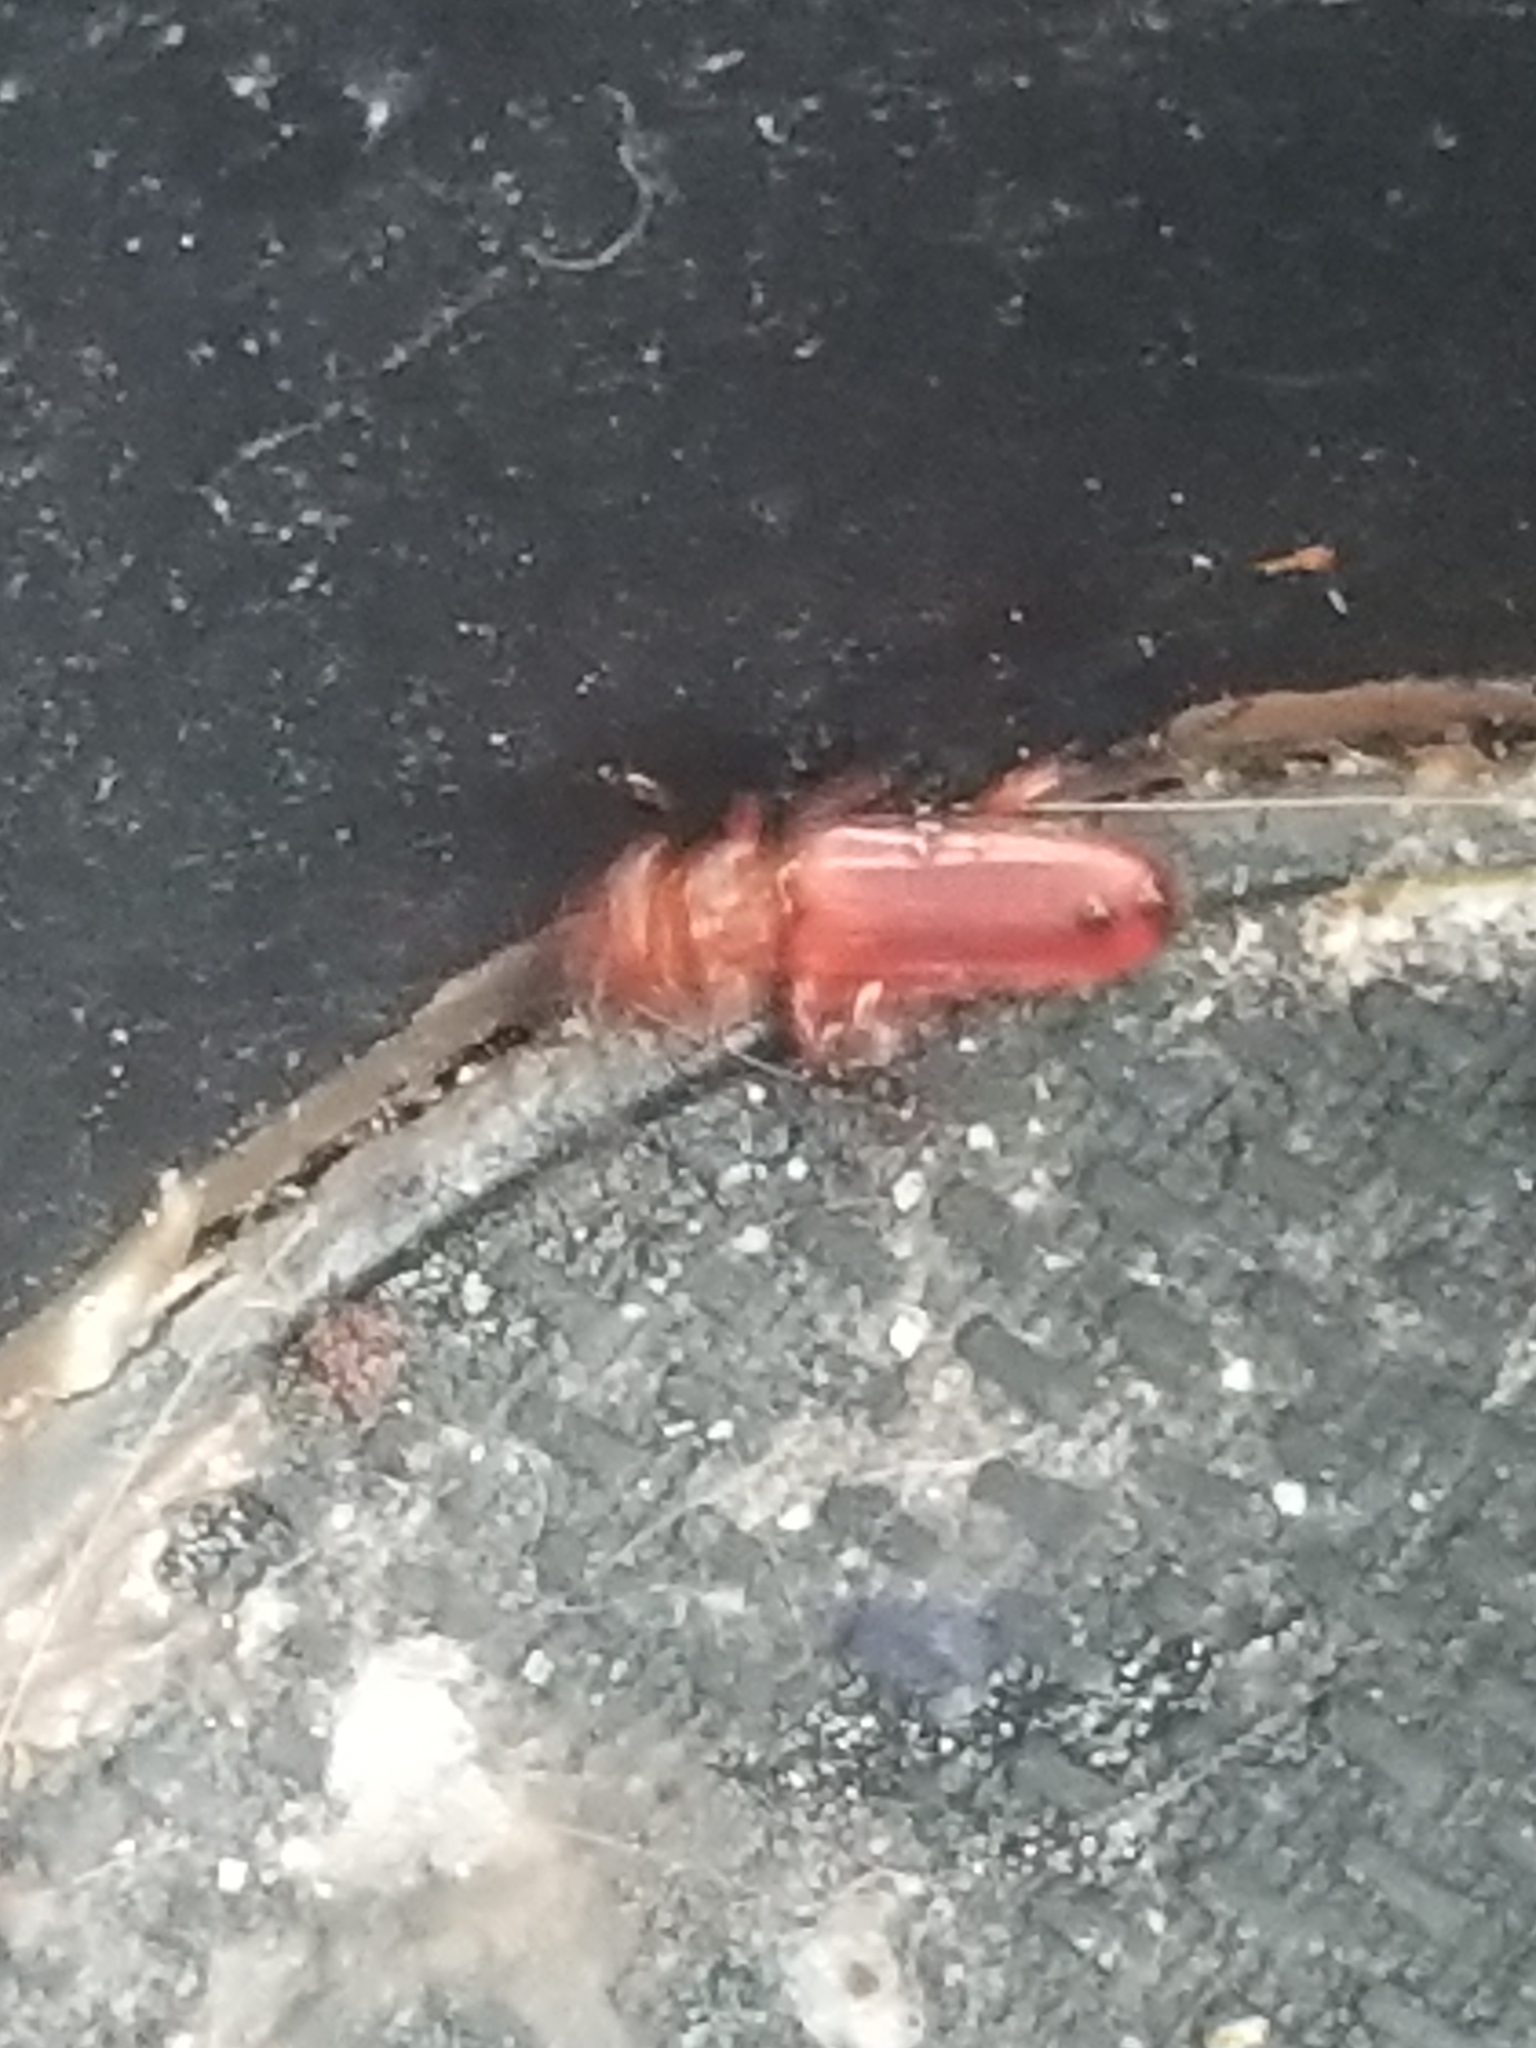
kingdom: Animalia
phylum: Arthropoda
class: Insecta
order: Coleoptera
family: Cucujidae
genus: Cucujus
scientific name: Cucujus clavipes
